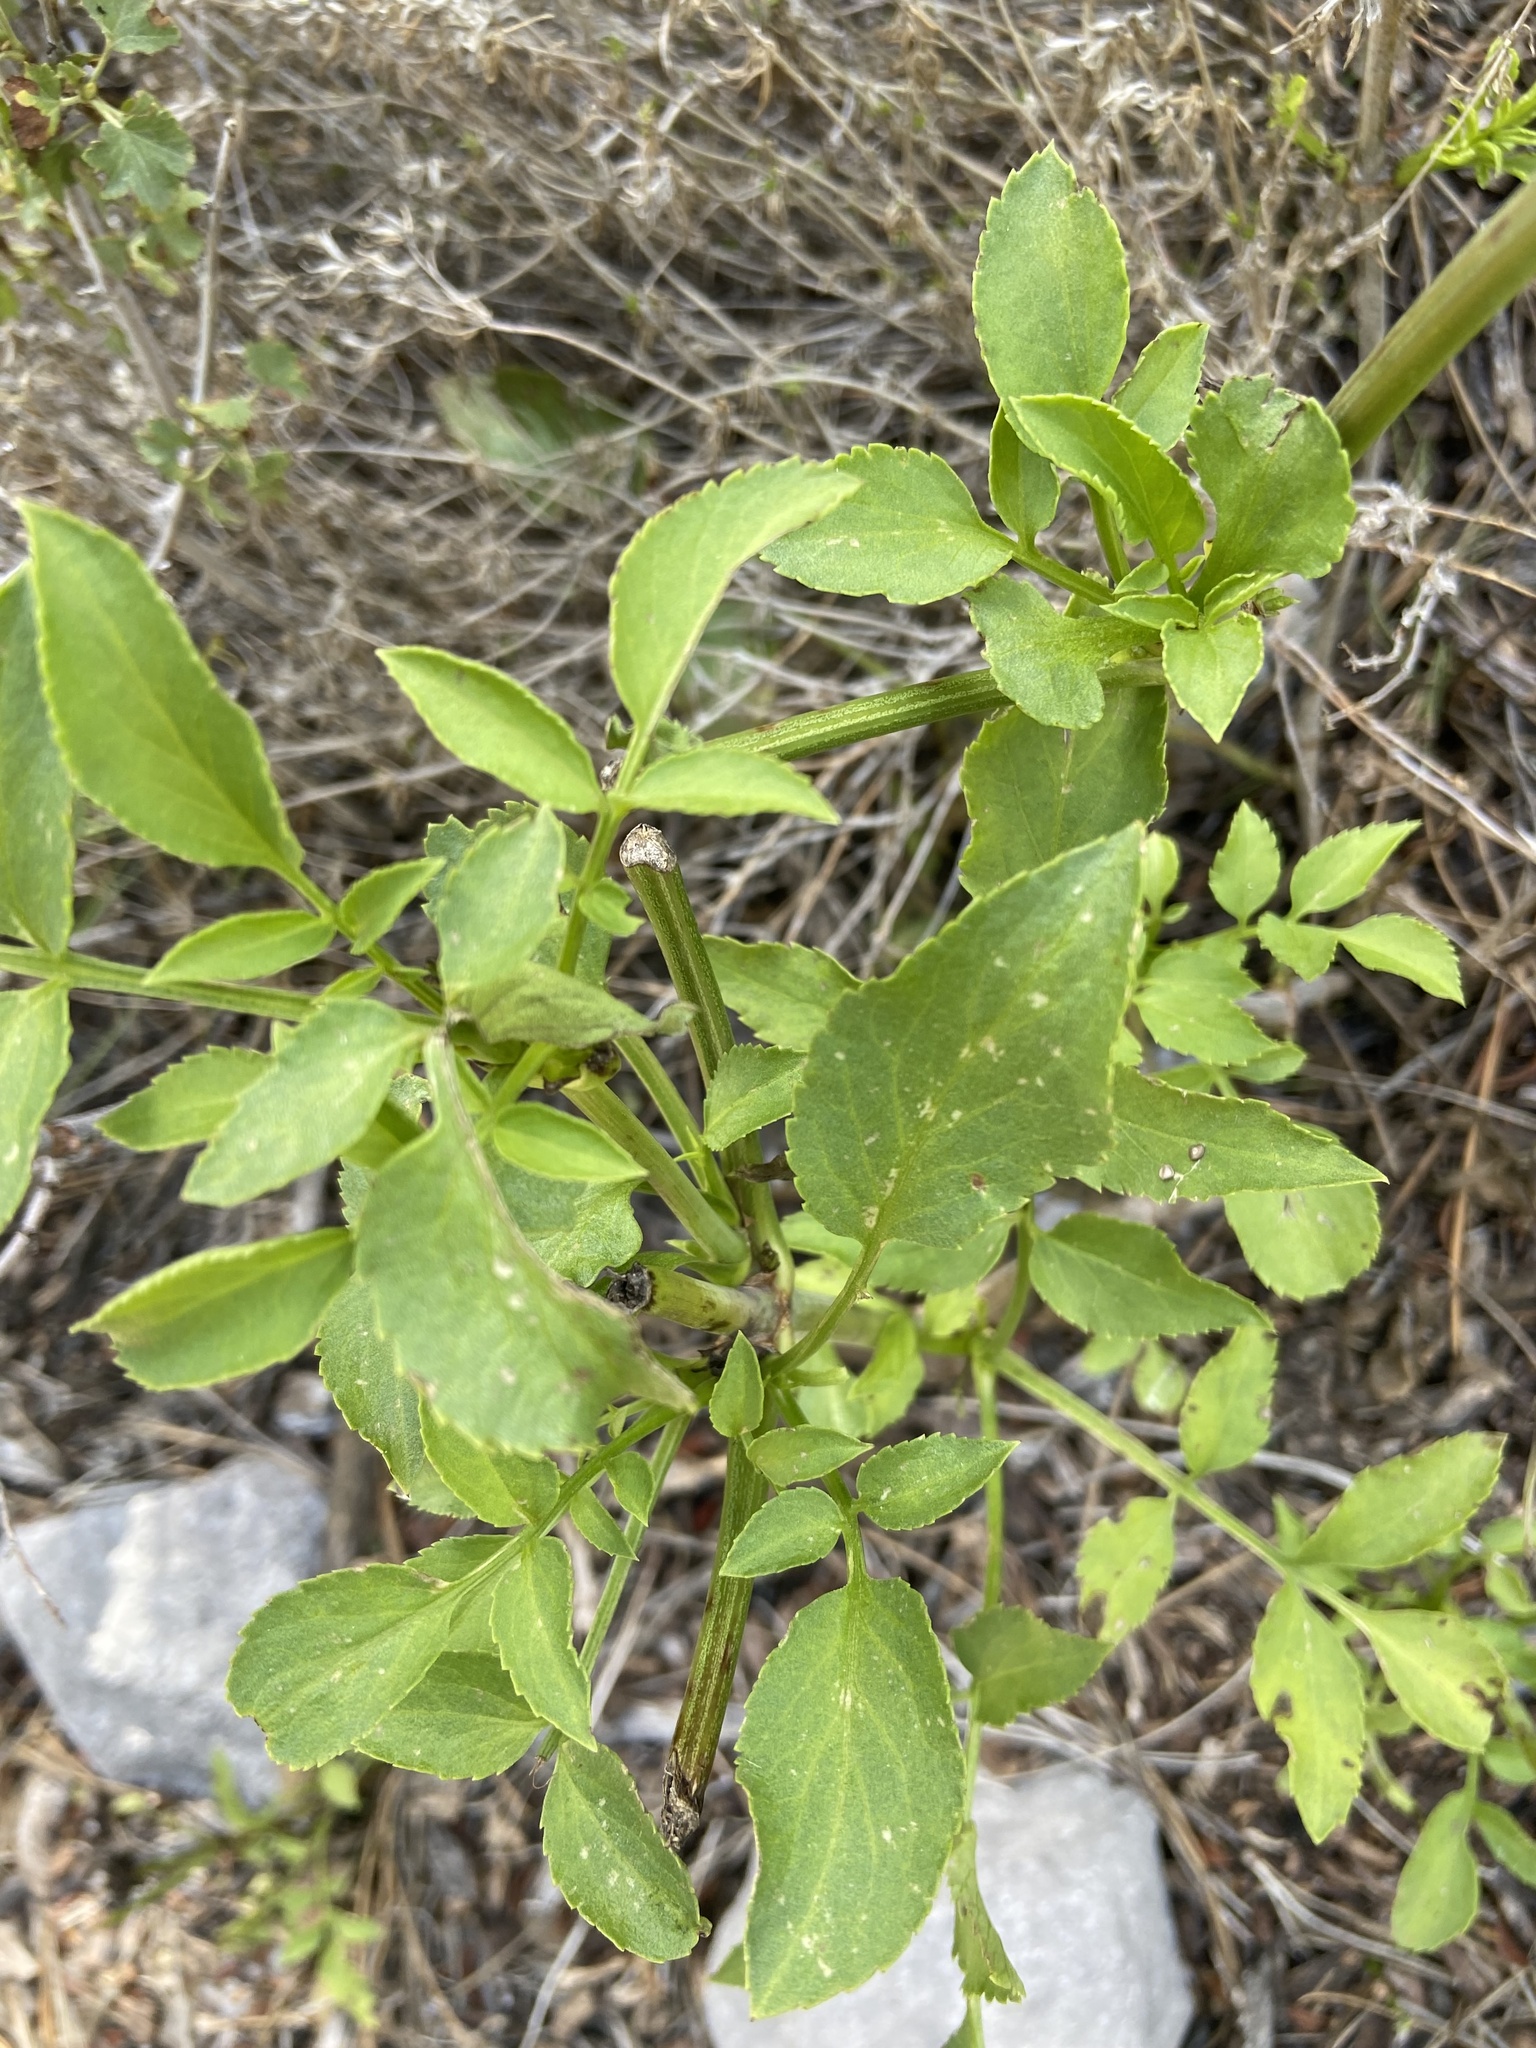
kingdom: Plantae
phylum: Tracheophyta
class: Magnoliopsida
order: Apiales
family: Apiaceae
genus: Angelica
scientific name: Angelica lineariloba
